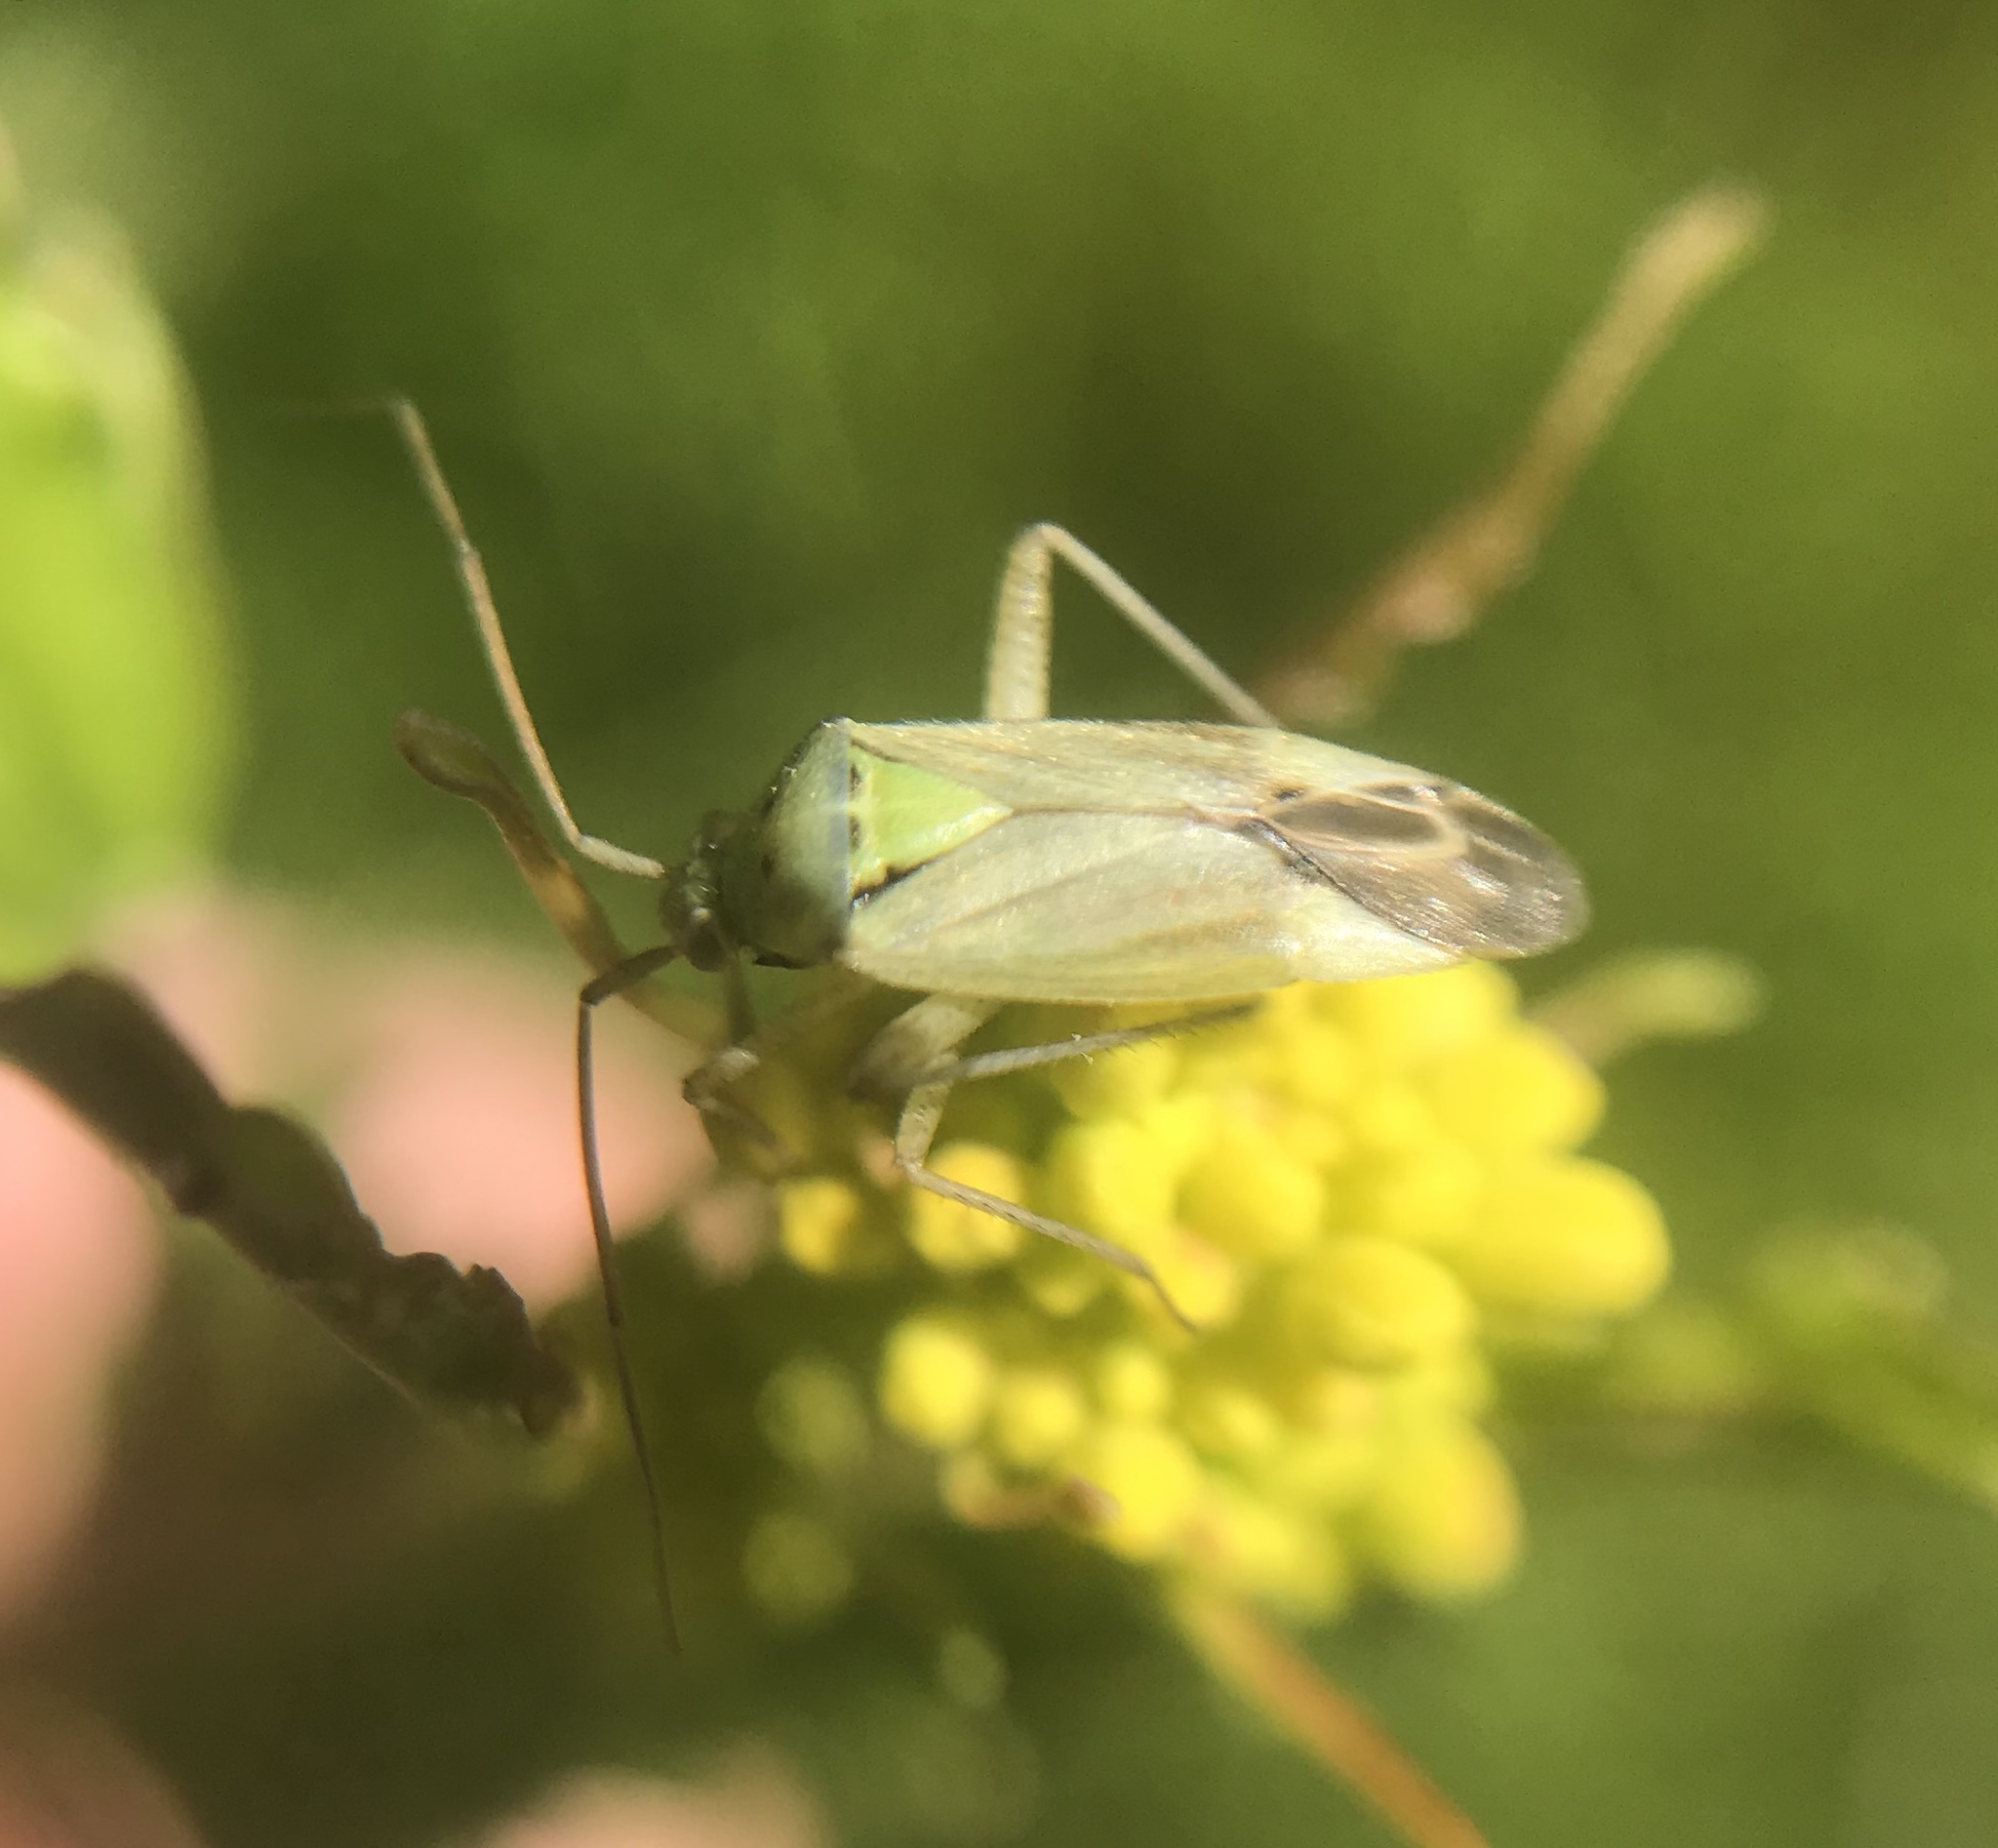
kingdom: Animalia
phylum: Arthropoda
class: Insecta
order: Hemiptera
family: Miridae
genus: Closterotomus
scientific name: Closterotomus norvegicus
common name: Plant bug
